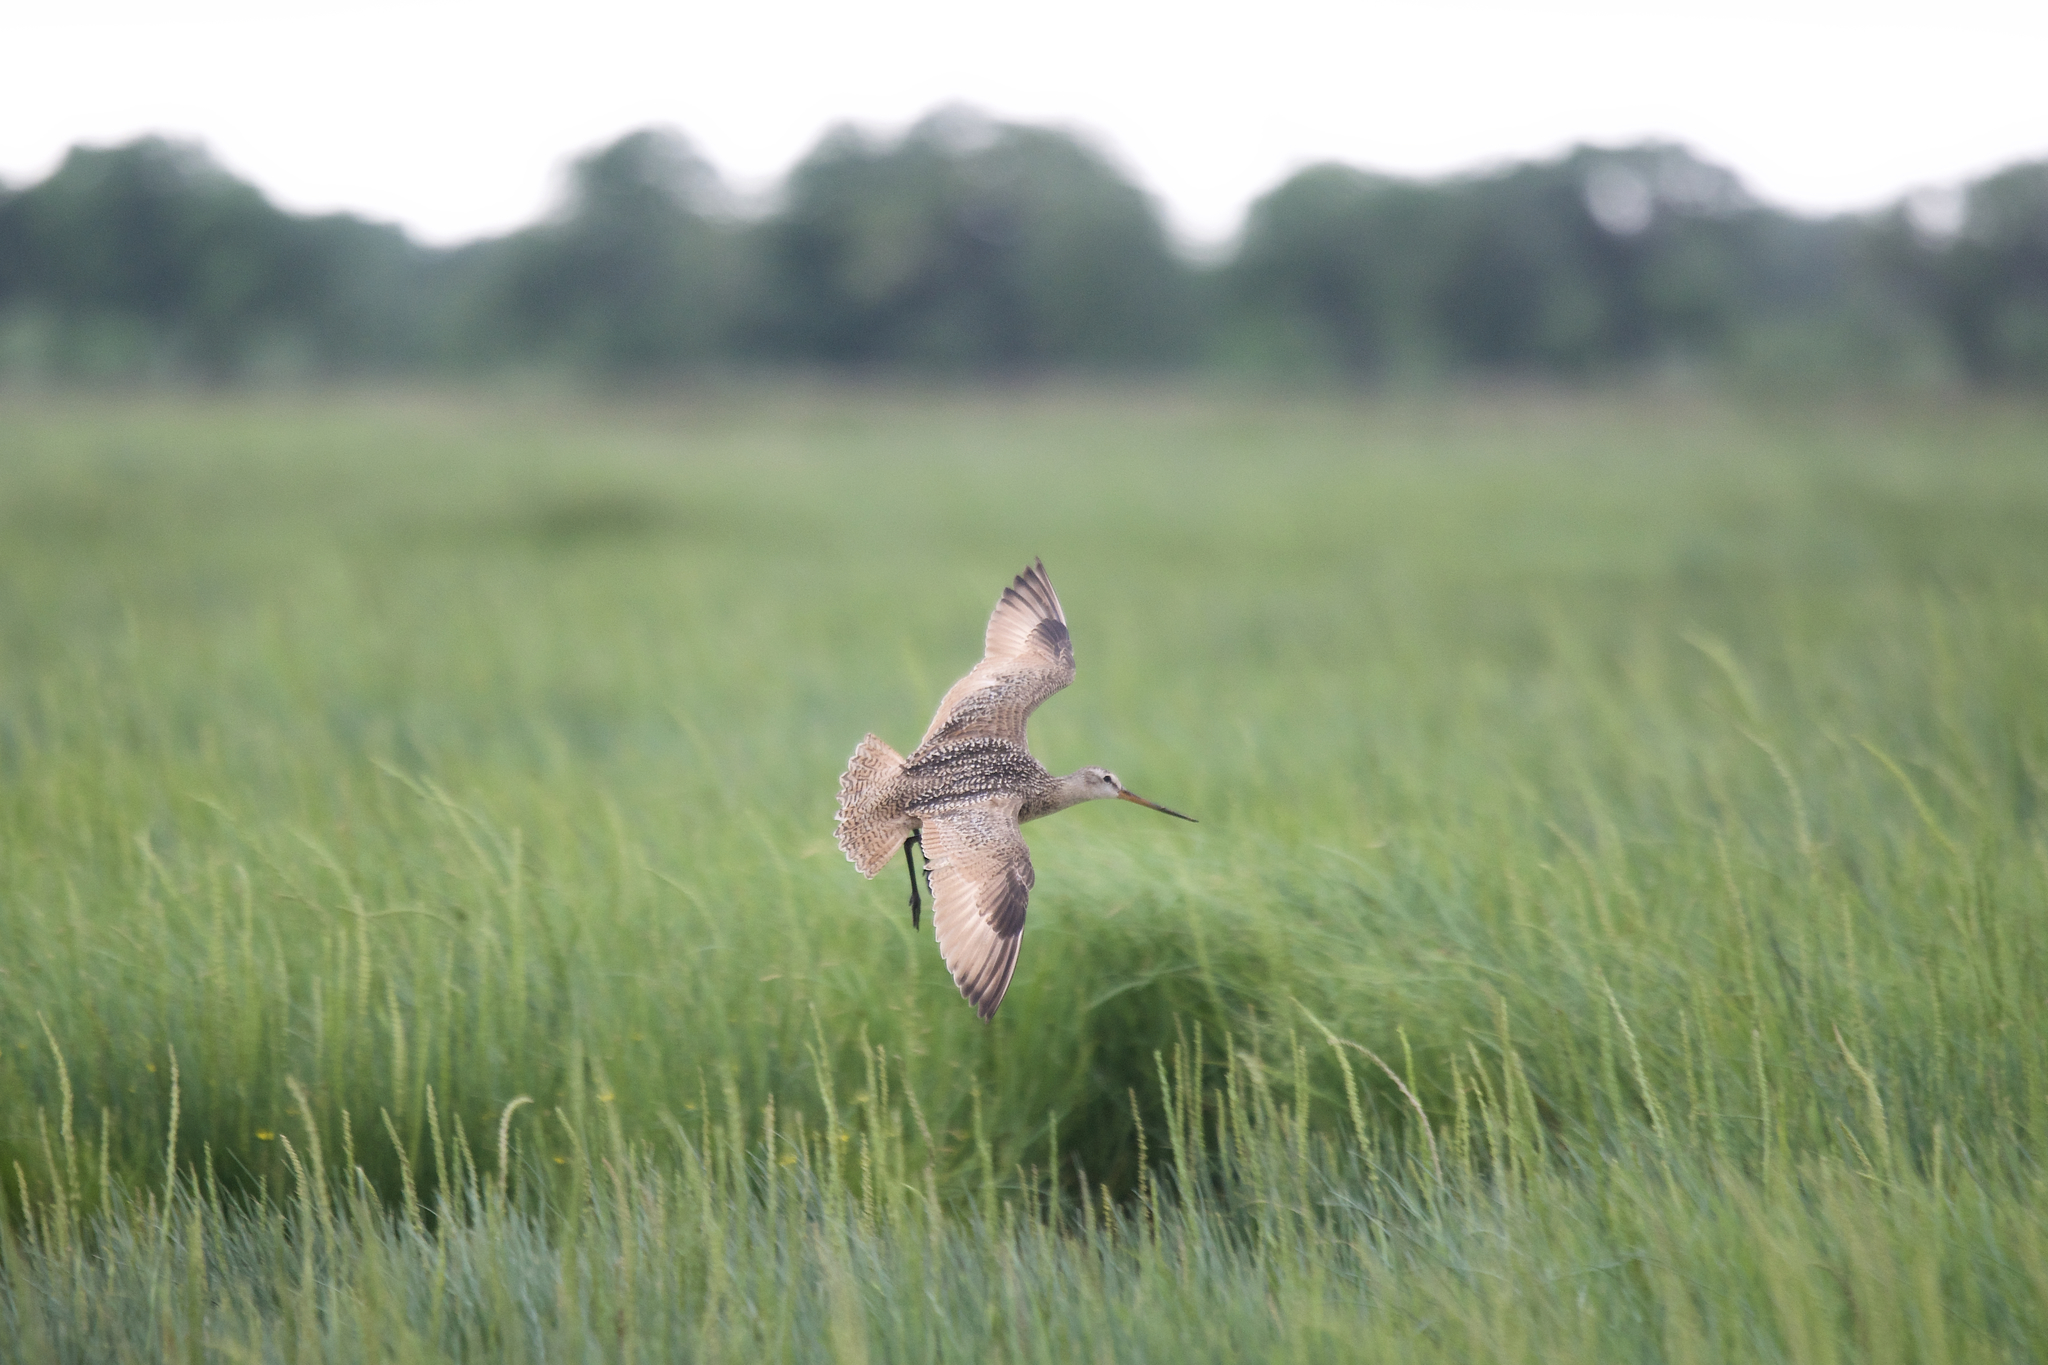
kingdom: Animalia
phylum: Chordata
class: Aves
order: Charadriiformes
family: Scolopacidae
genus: Limosa
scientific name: Limosa fedoa
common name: Marbled godwit
